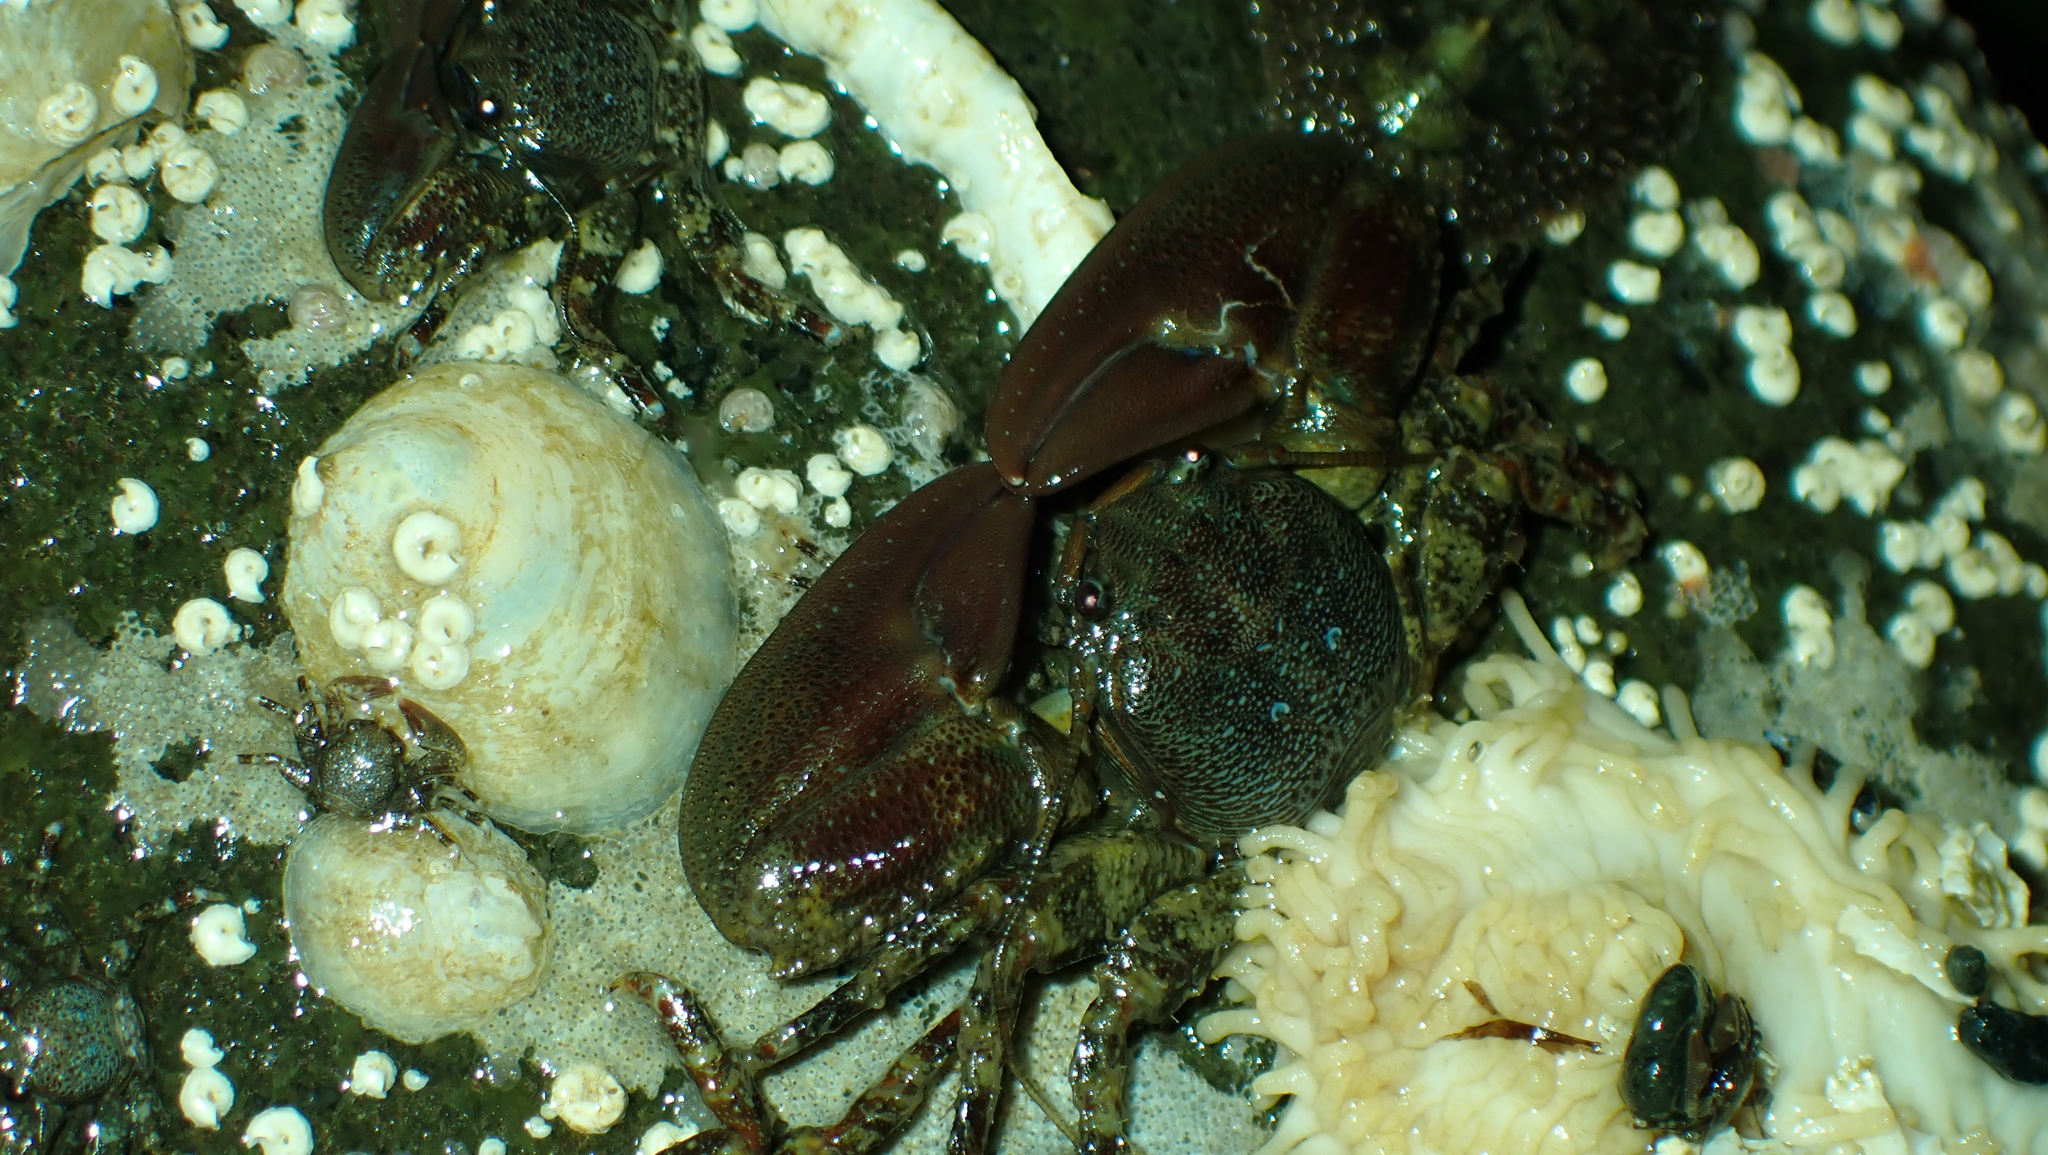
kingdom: Animalia
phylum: Arthropoda
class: Malacostraca
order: Decapoda
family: Porcellanidae
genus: Petrolisthes
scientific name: Petrolisthes eriomerus
